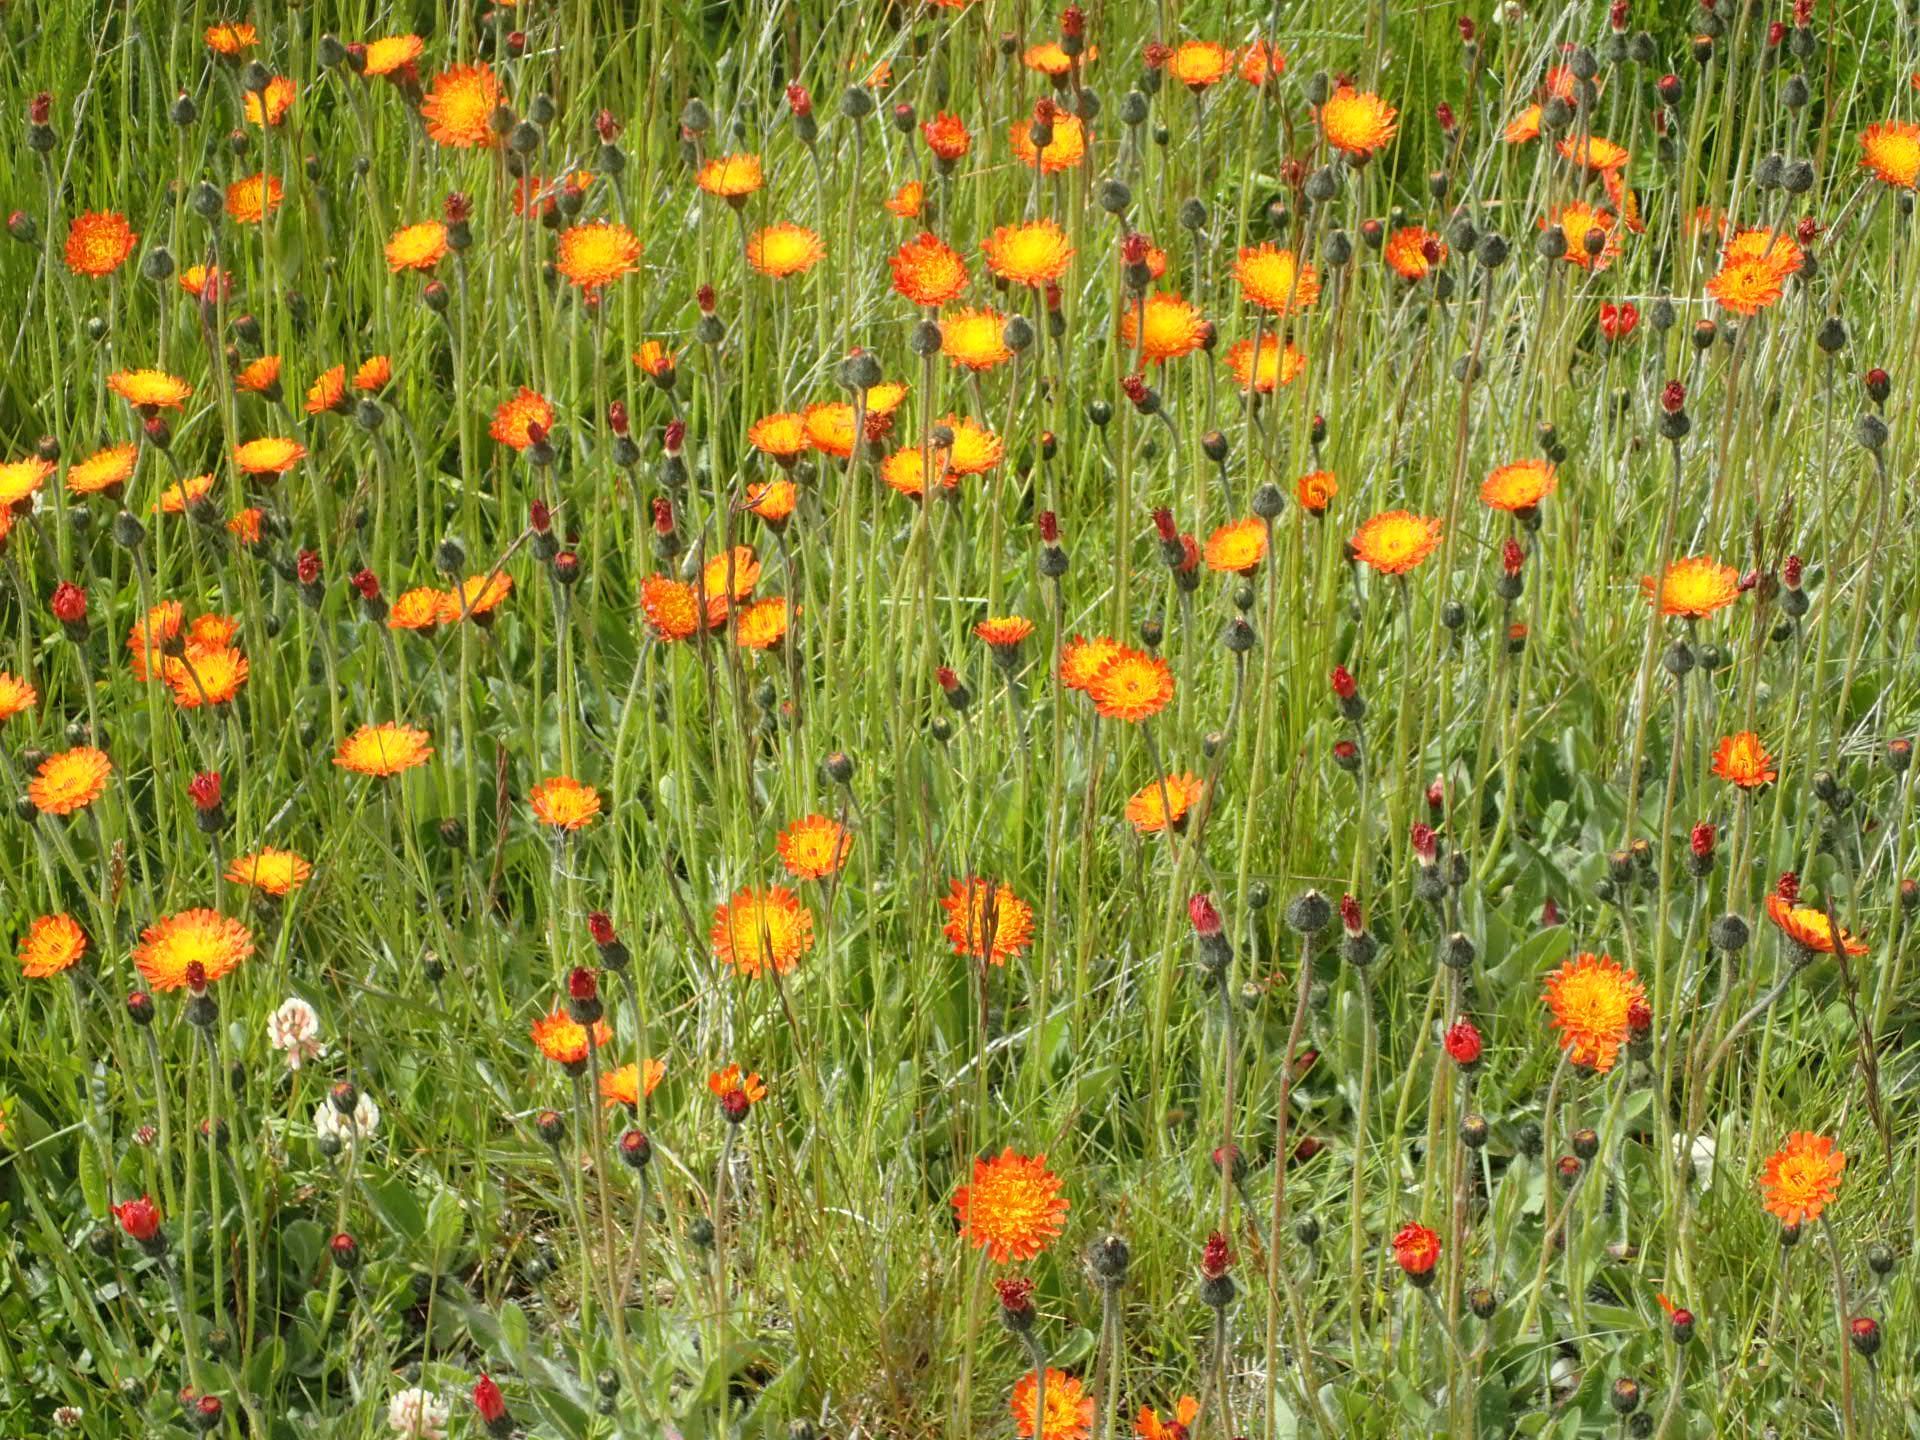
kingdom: Plantae
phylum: Tracheophyta
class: Magnoliopsida
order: Asterales
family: Asteraceae
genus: Pilosella
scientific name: Pilosella aurantiaca
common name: Fox-and-cubs
